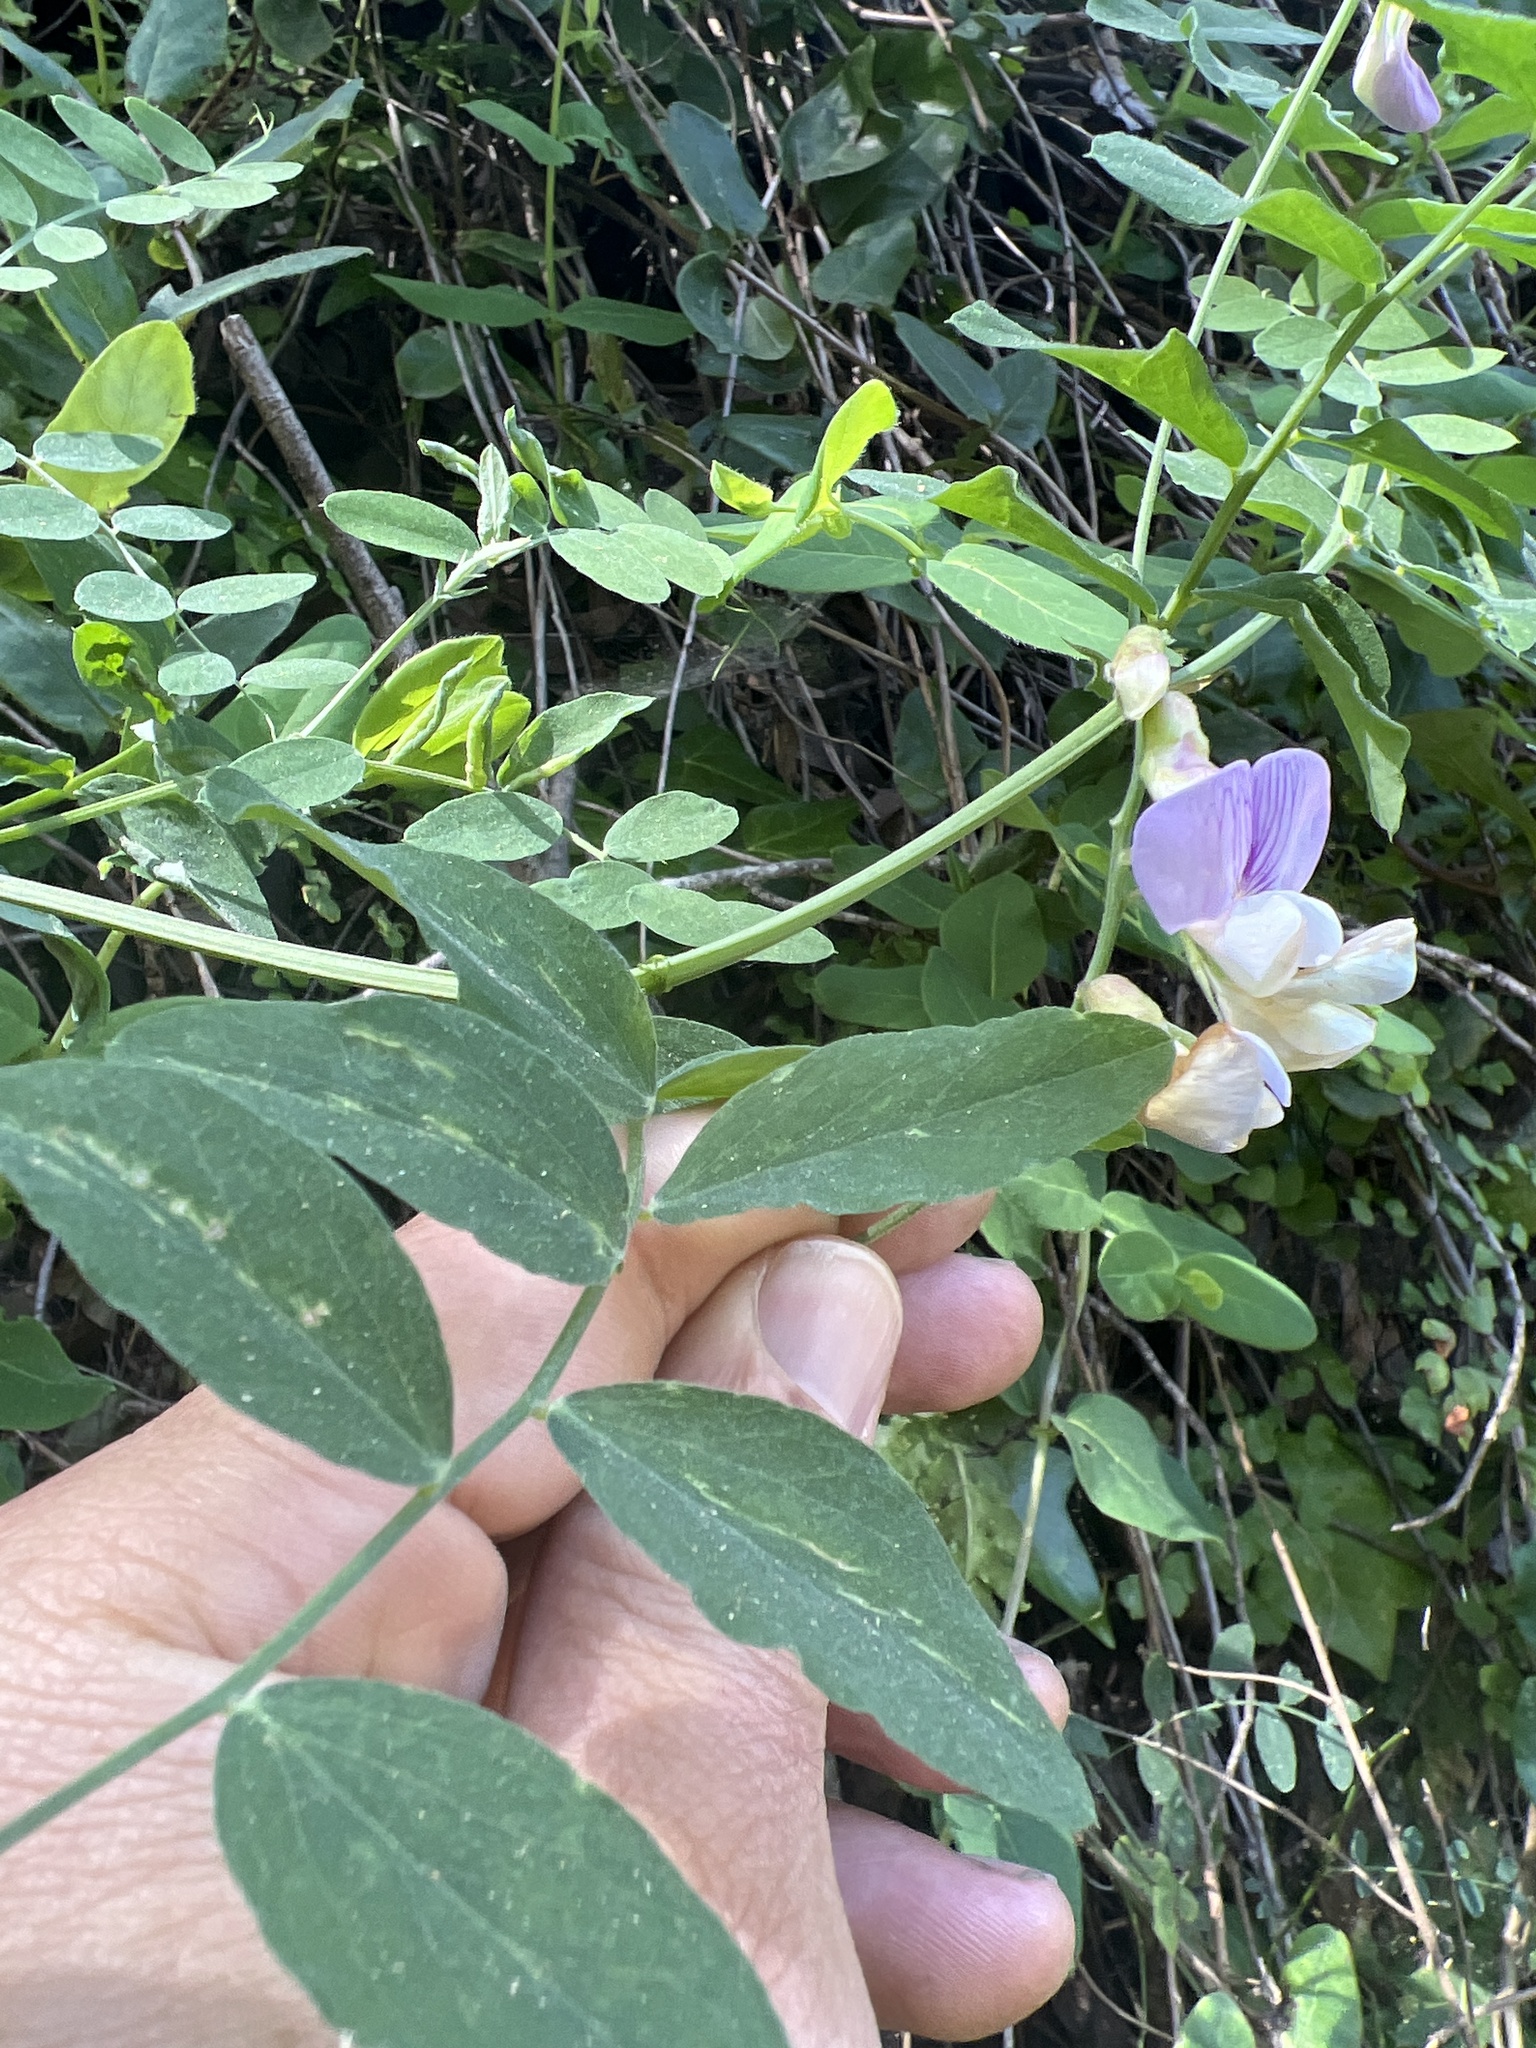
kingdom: Plantae
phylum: Tracheophyta
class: Magnoliopsida
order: Fabales
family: Fabaceae
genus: Lathyrus
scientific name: Lathyrus vestitus
